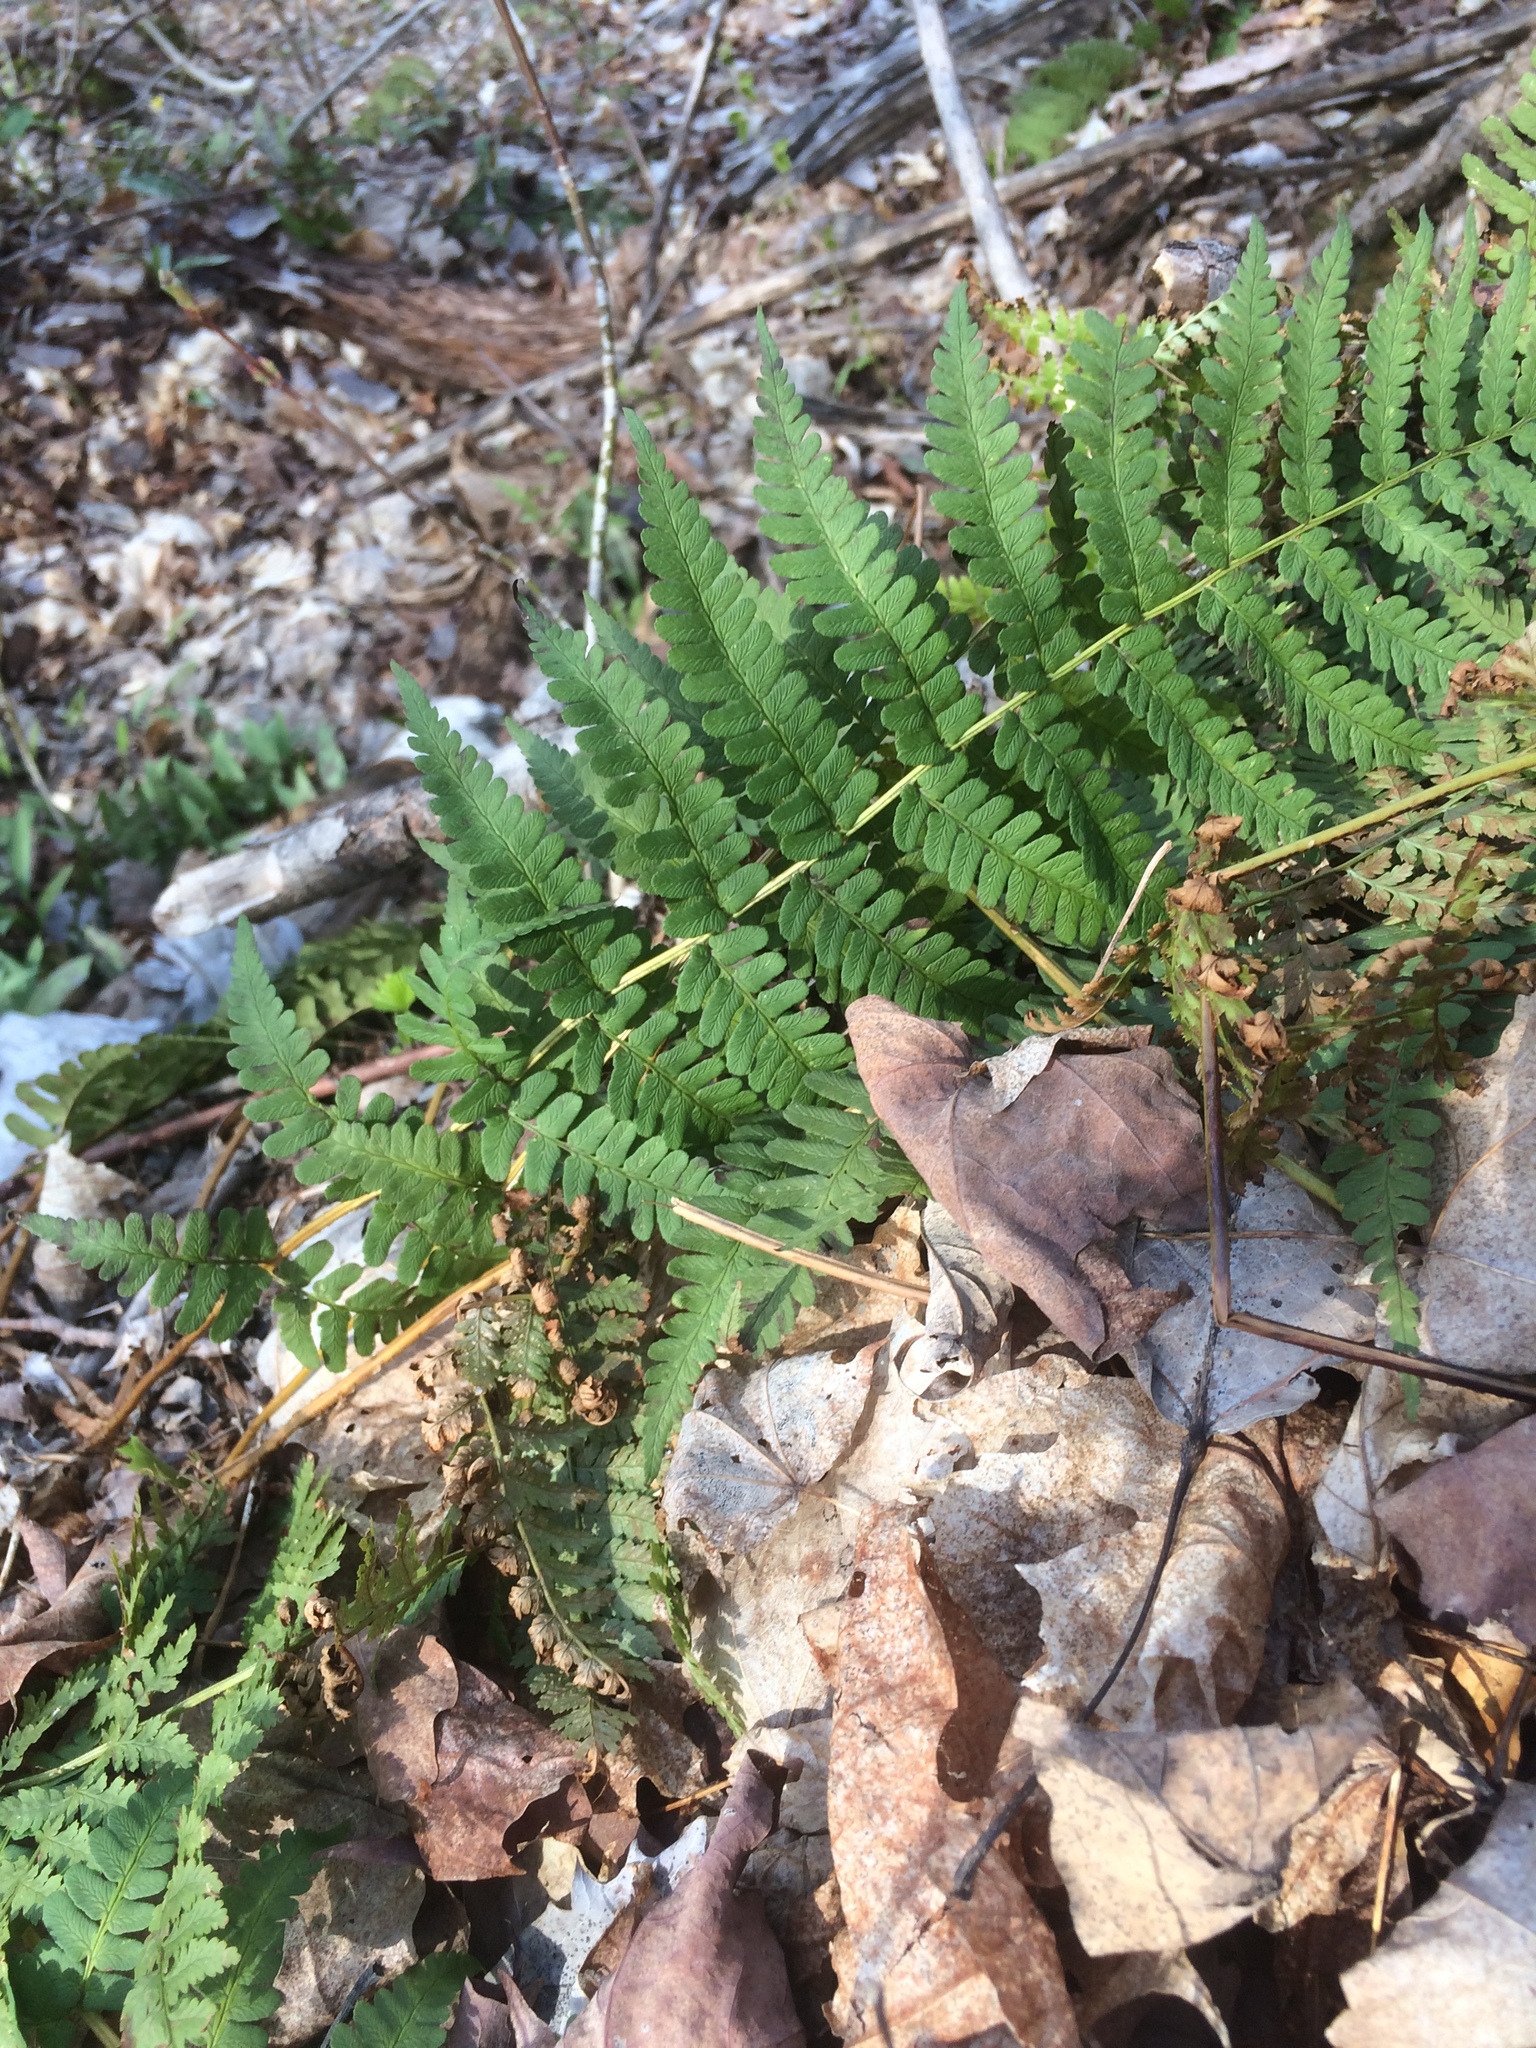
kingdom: Plantae
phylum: Tracheophyta
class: Polypodiopsida
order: Polypodiales
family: Dryopteridaceae
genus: Dryopteris
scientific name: Dryopteris marginalis
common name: Marginal wood fern
